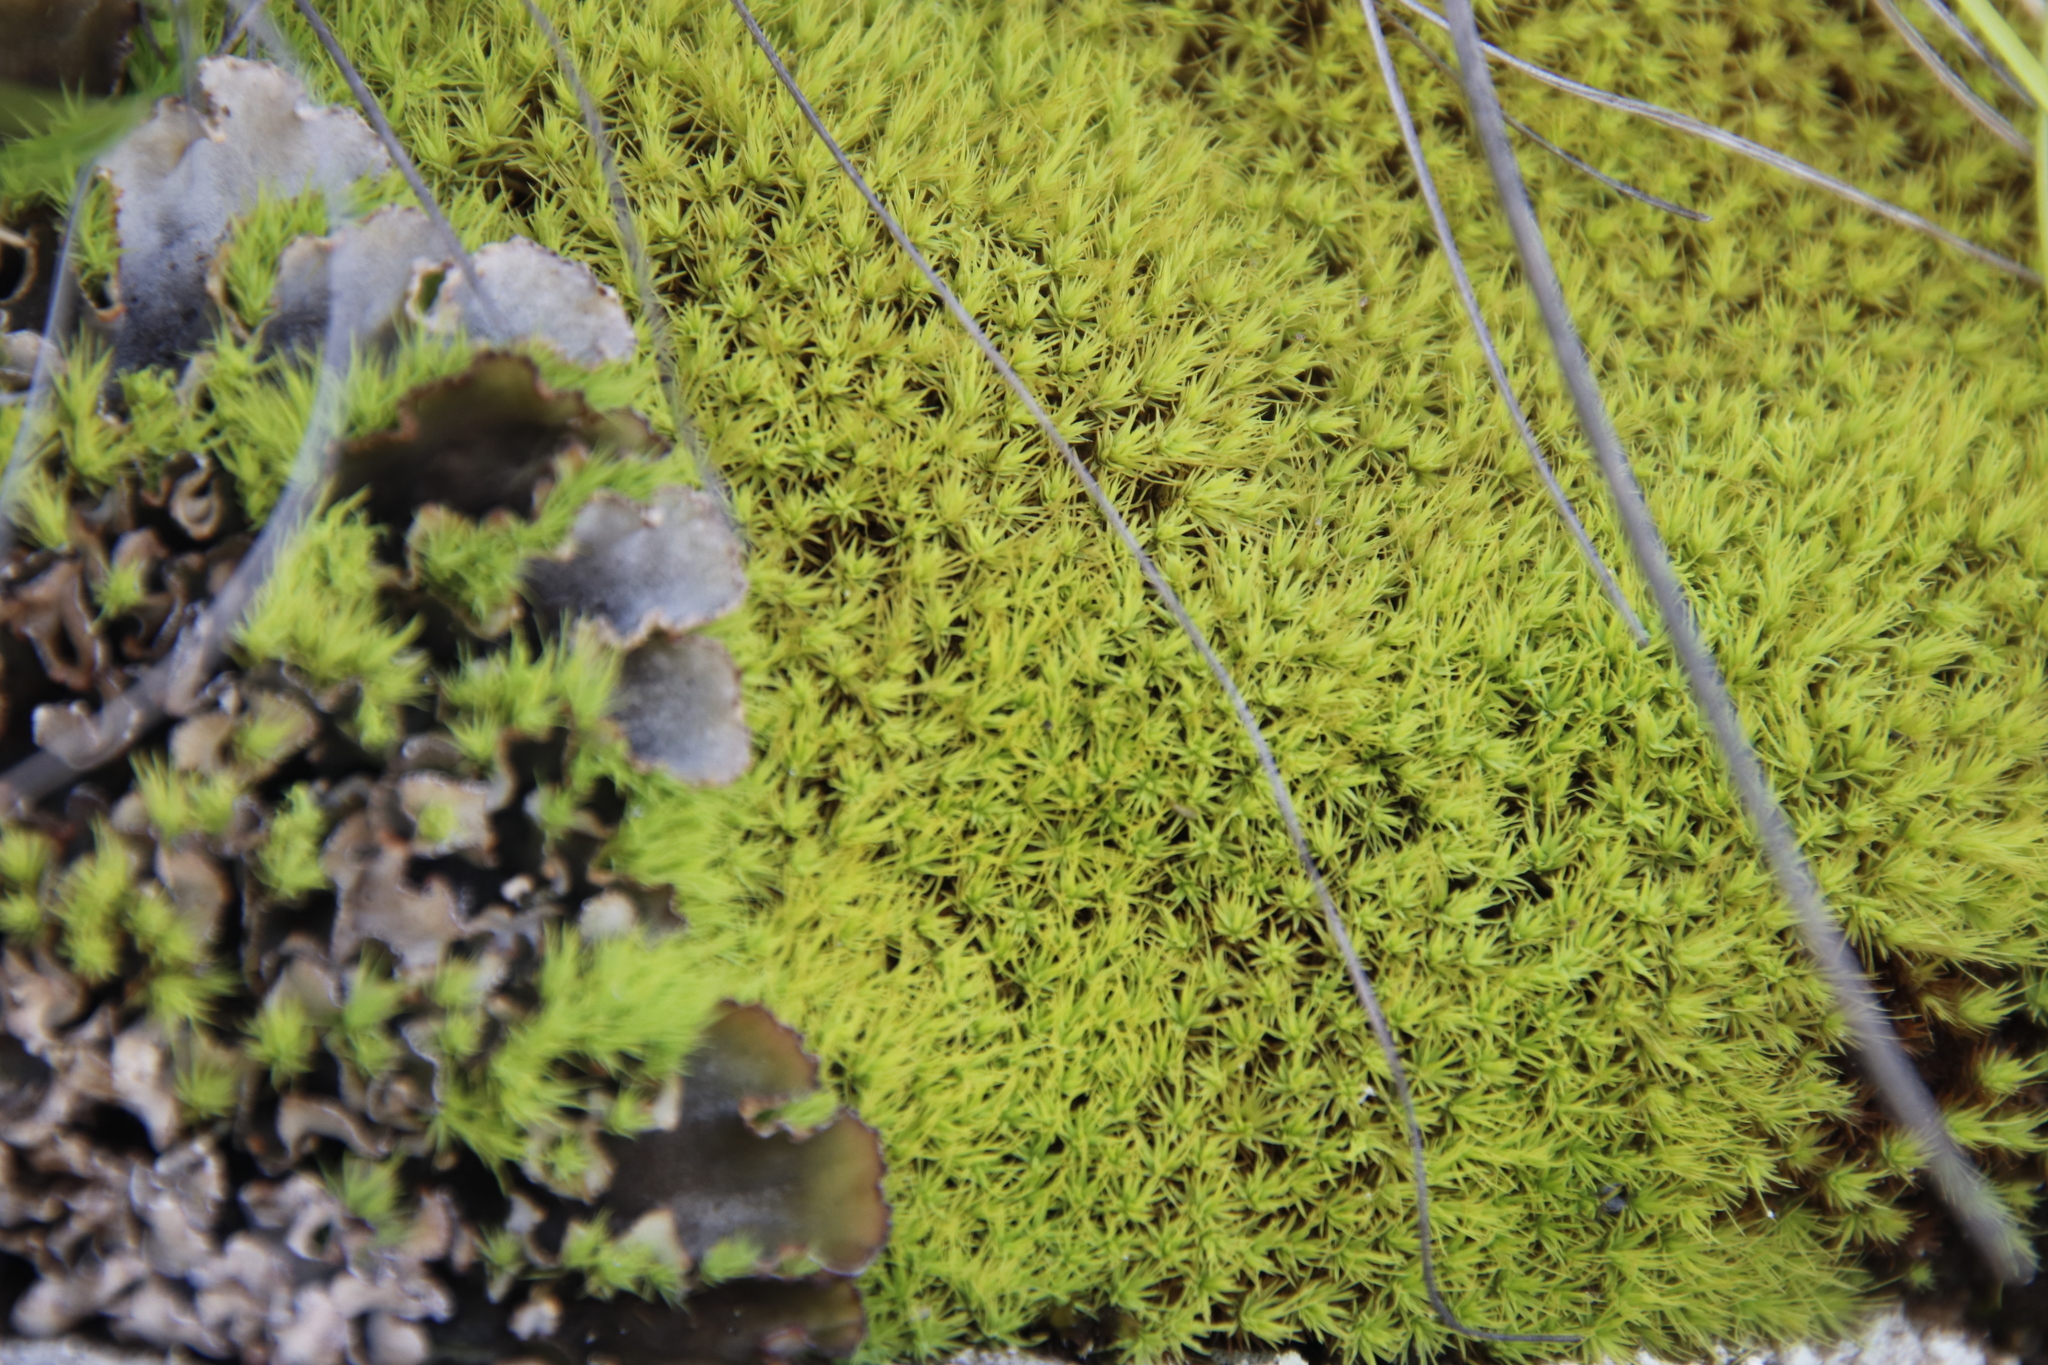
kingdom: Plantae
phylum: Bryophyta
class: Bryopsida
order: Bartramiales
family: Bartramiaceae
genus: Bartramia
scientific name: Bartramia hampeana
